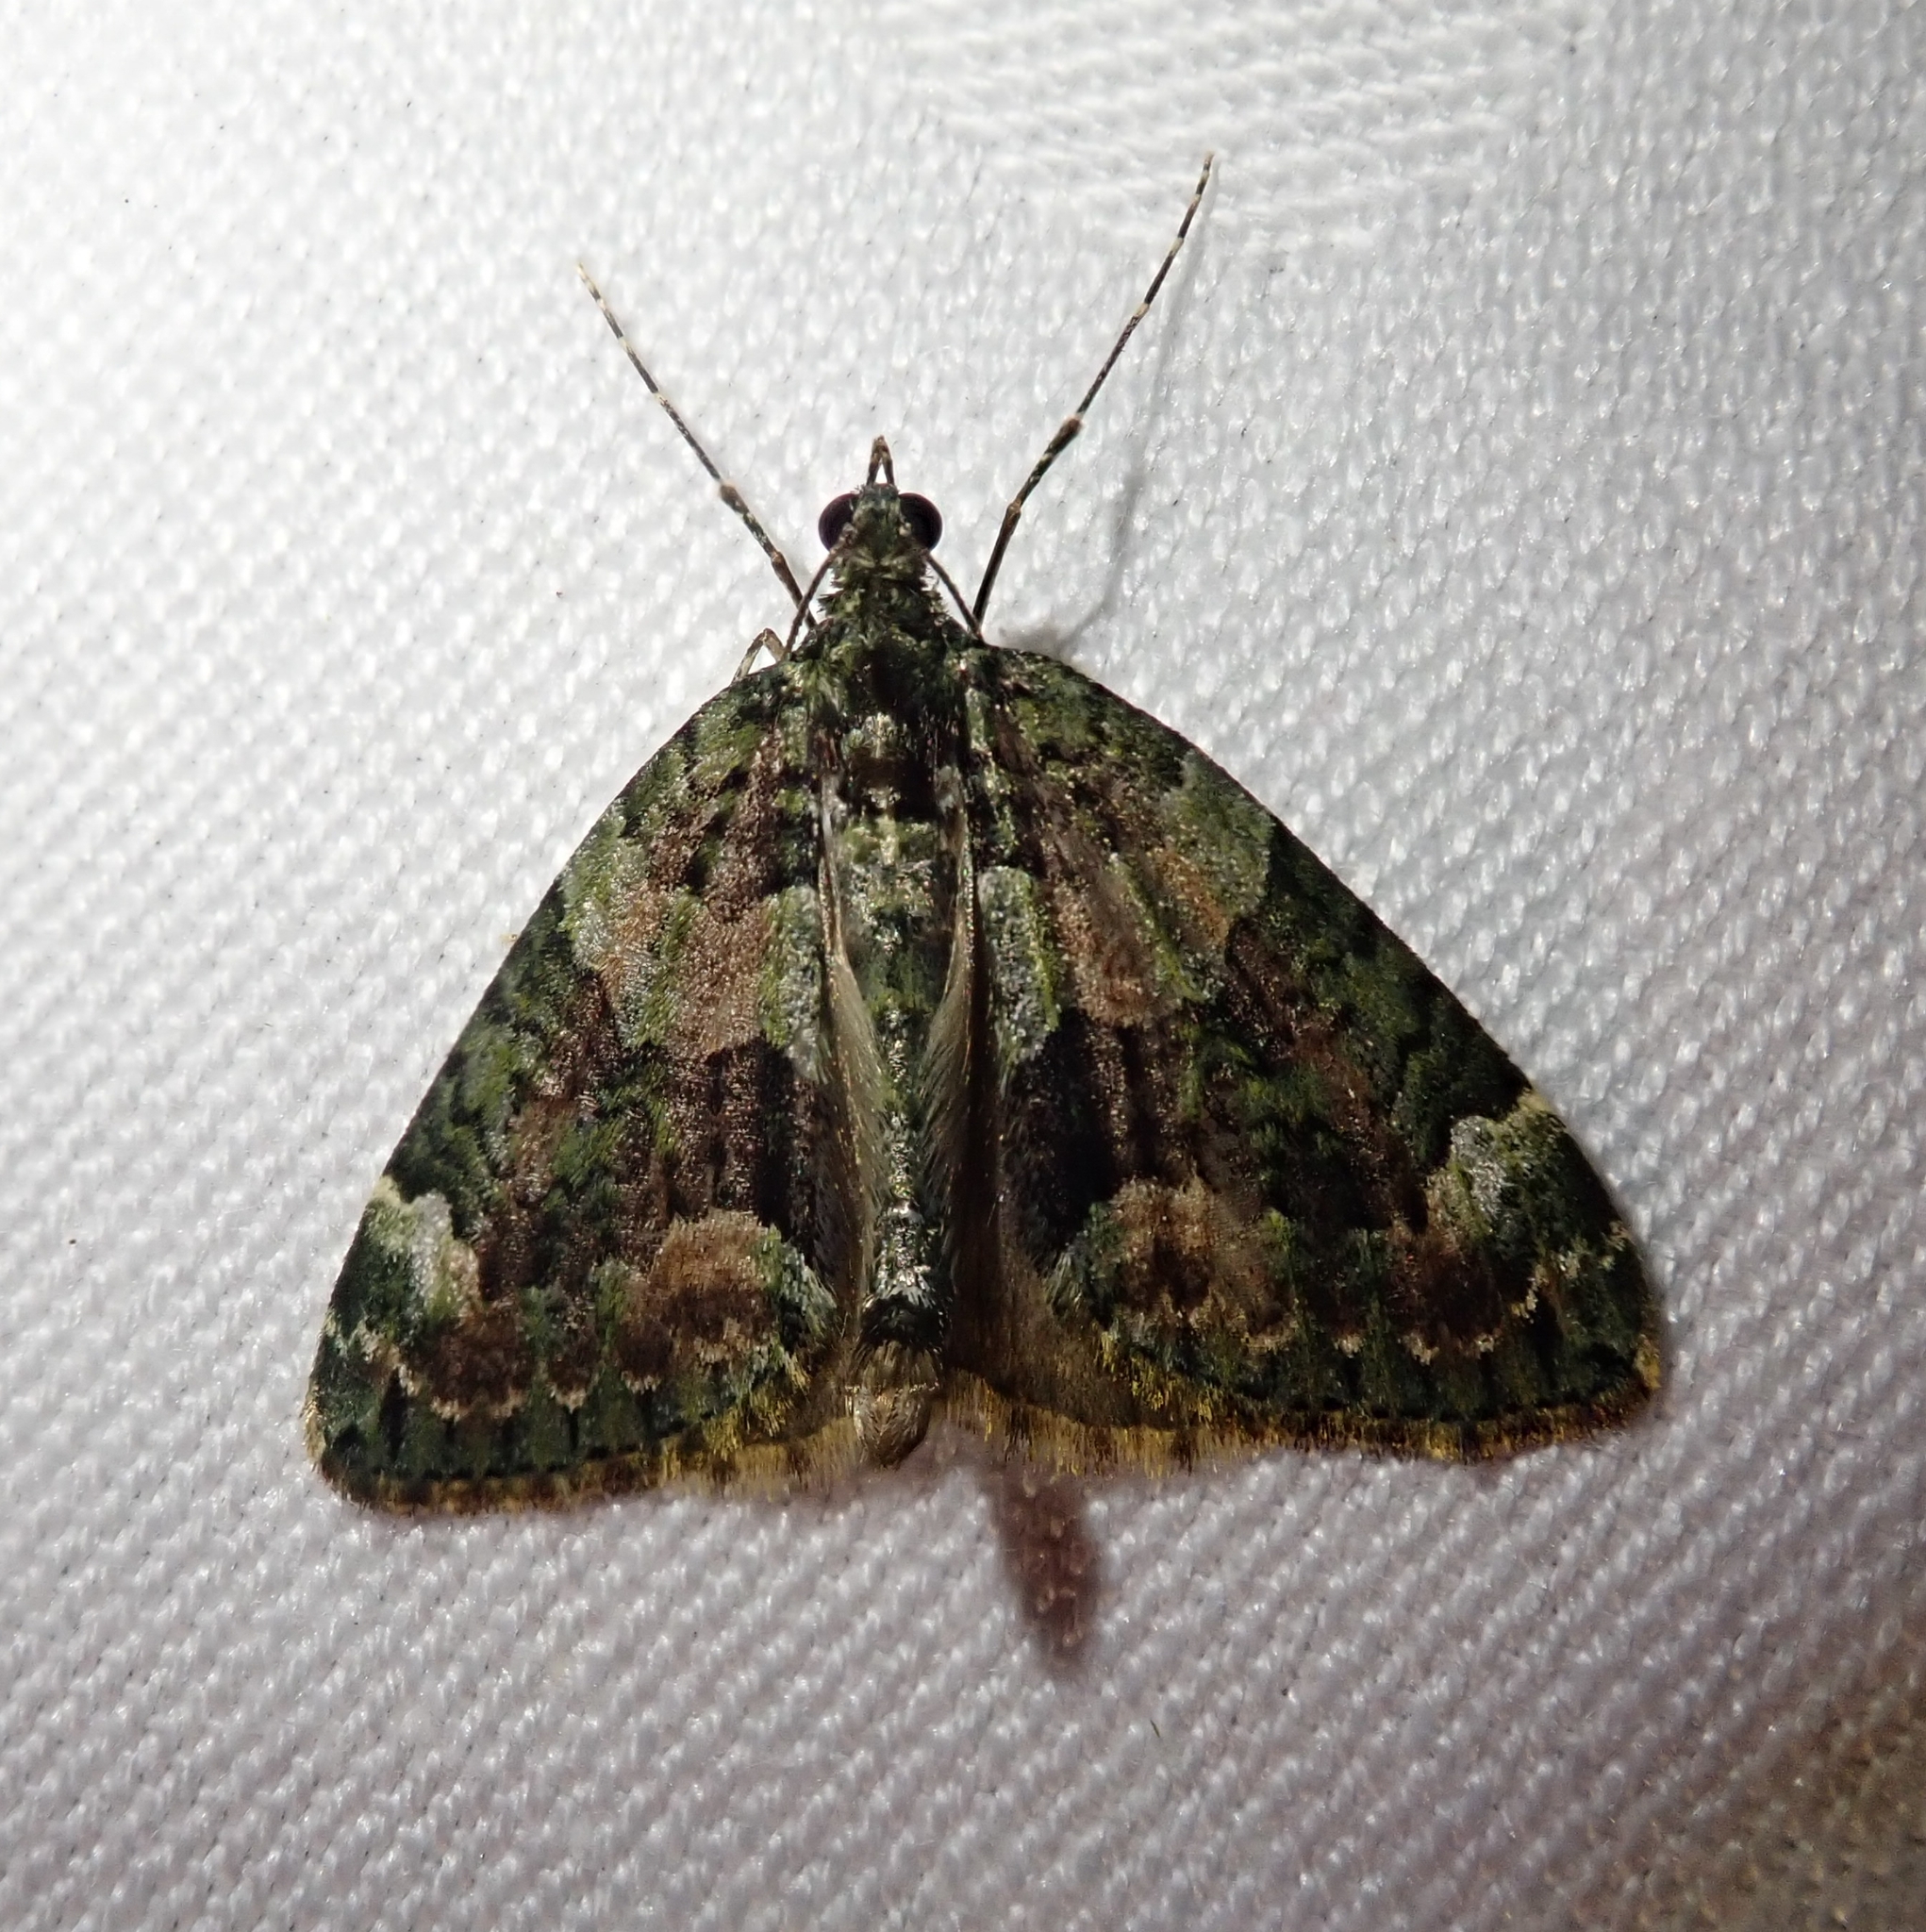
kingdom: Animalia
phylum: Arthropoda
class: Insecta
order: Lepidoptera
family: Geometridae
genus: Chloroclysta
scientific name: Chloroclysta siterata
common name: Red-green carpet
